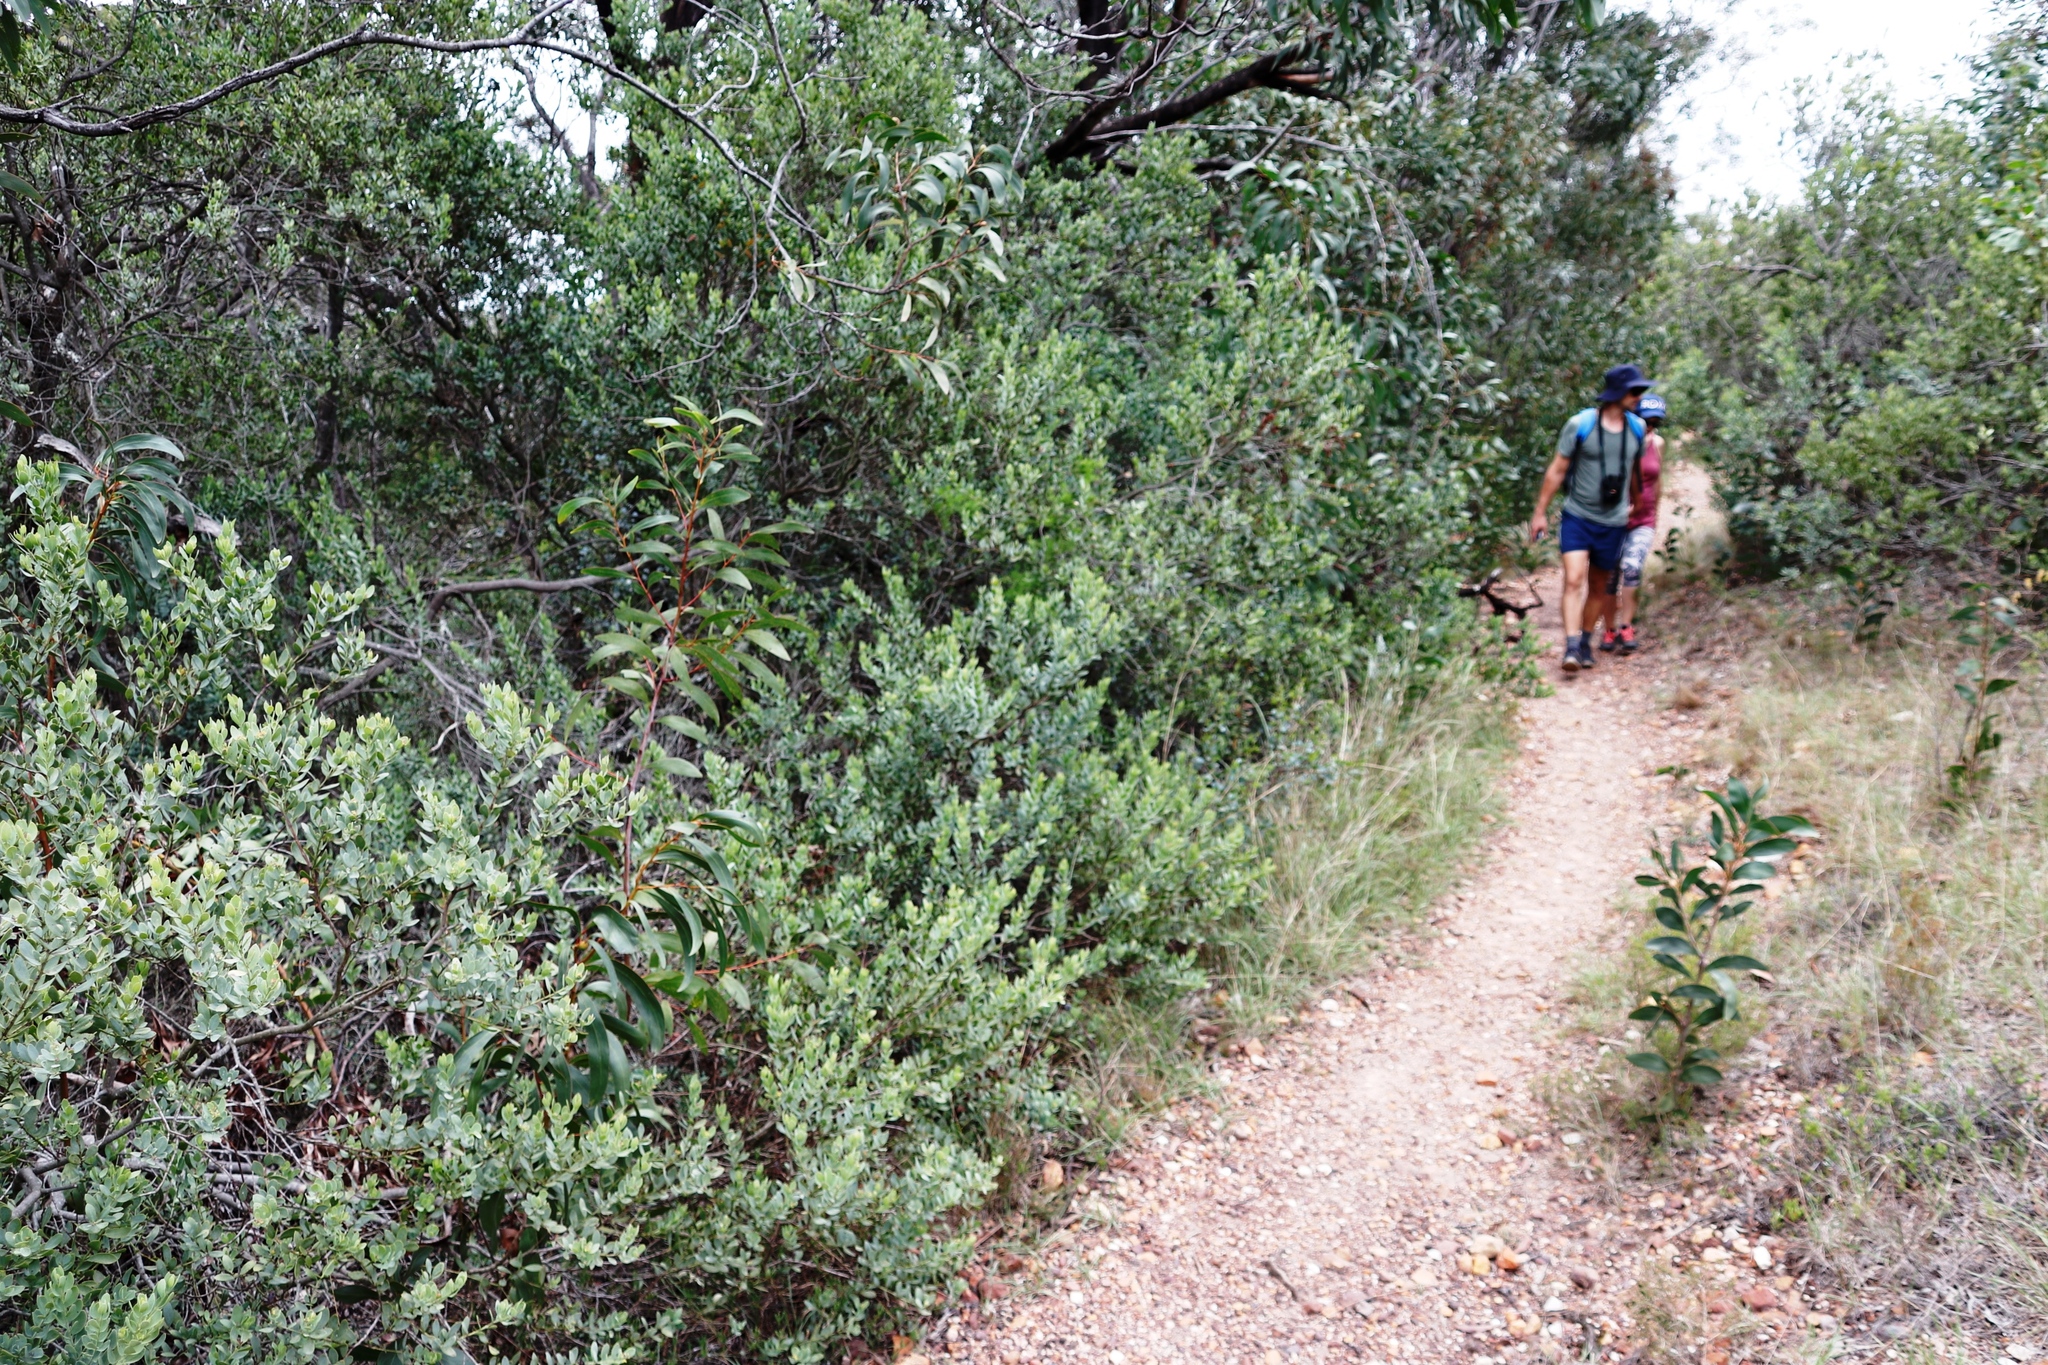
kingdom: Plantae
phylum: Tracheophyta
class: Magnoliopsida
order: Santalales
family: Santalaceae
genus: Osyris
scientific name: Osyris compressa
